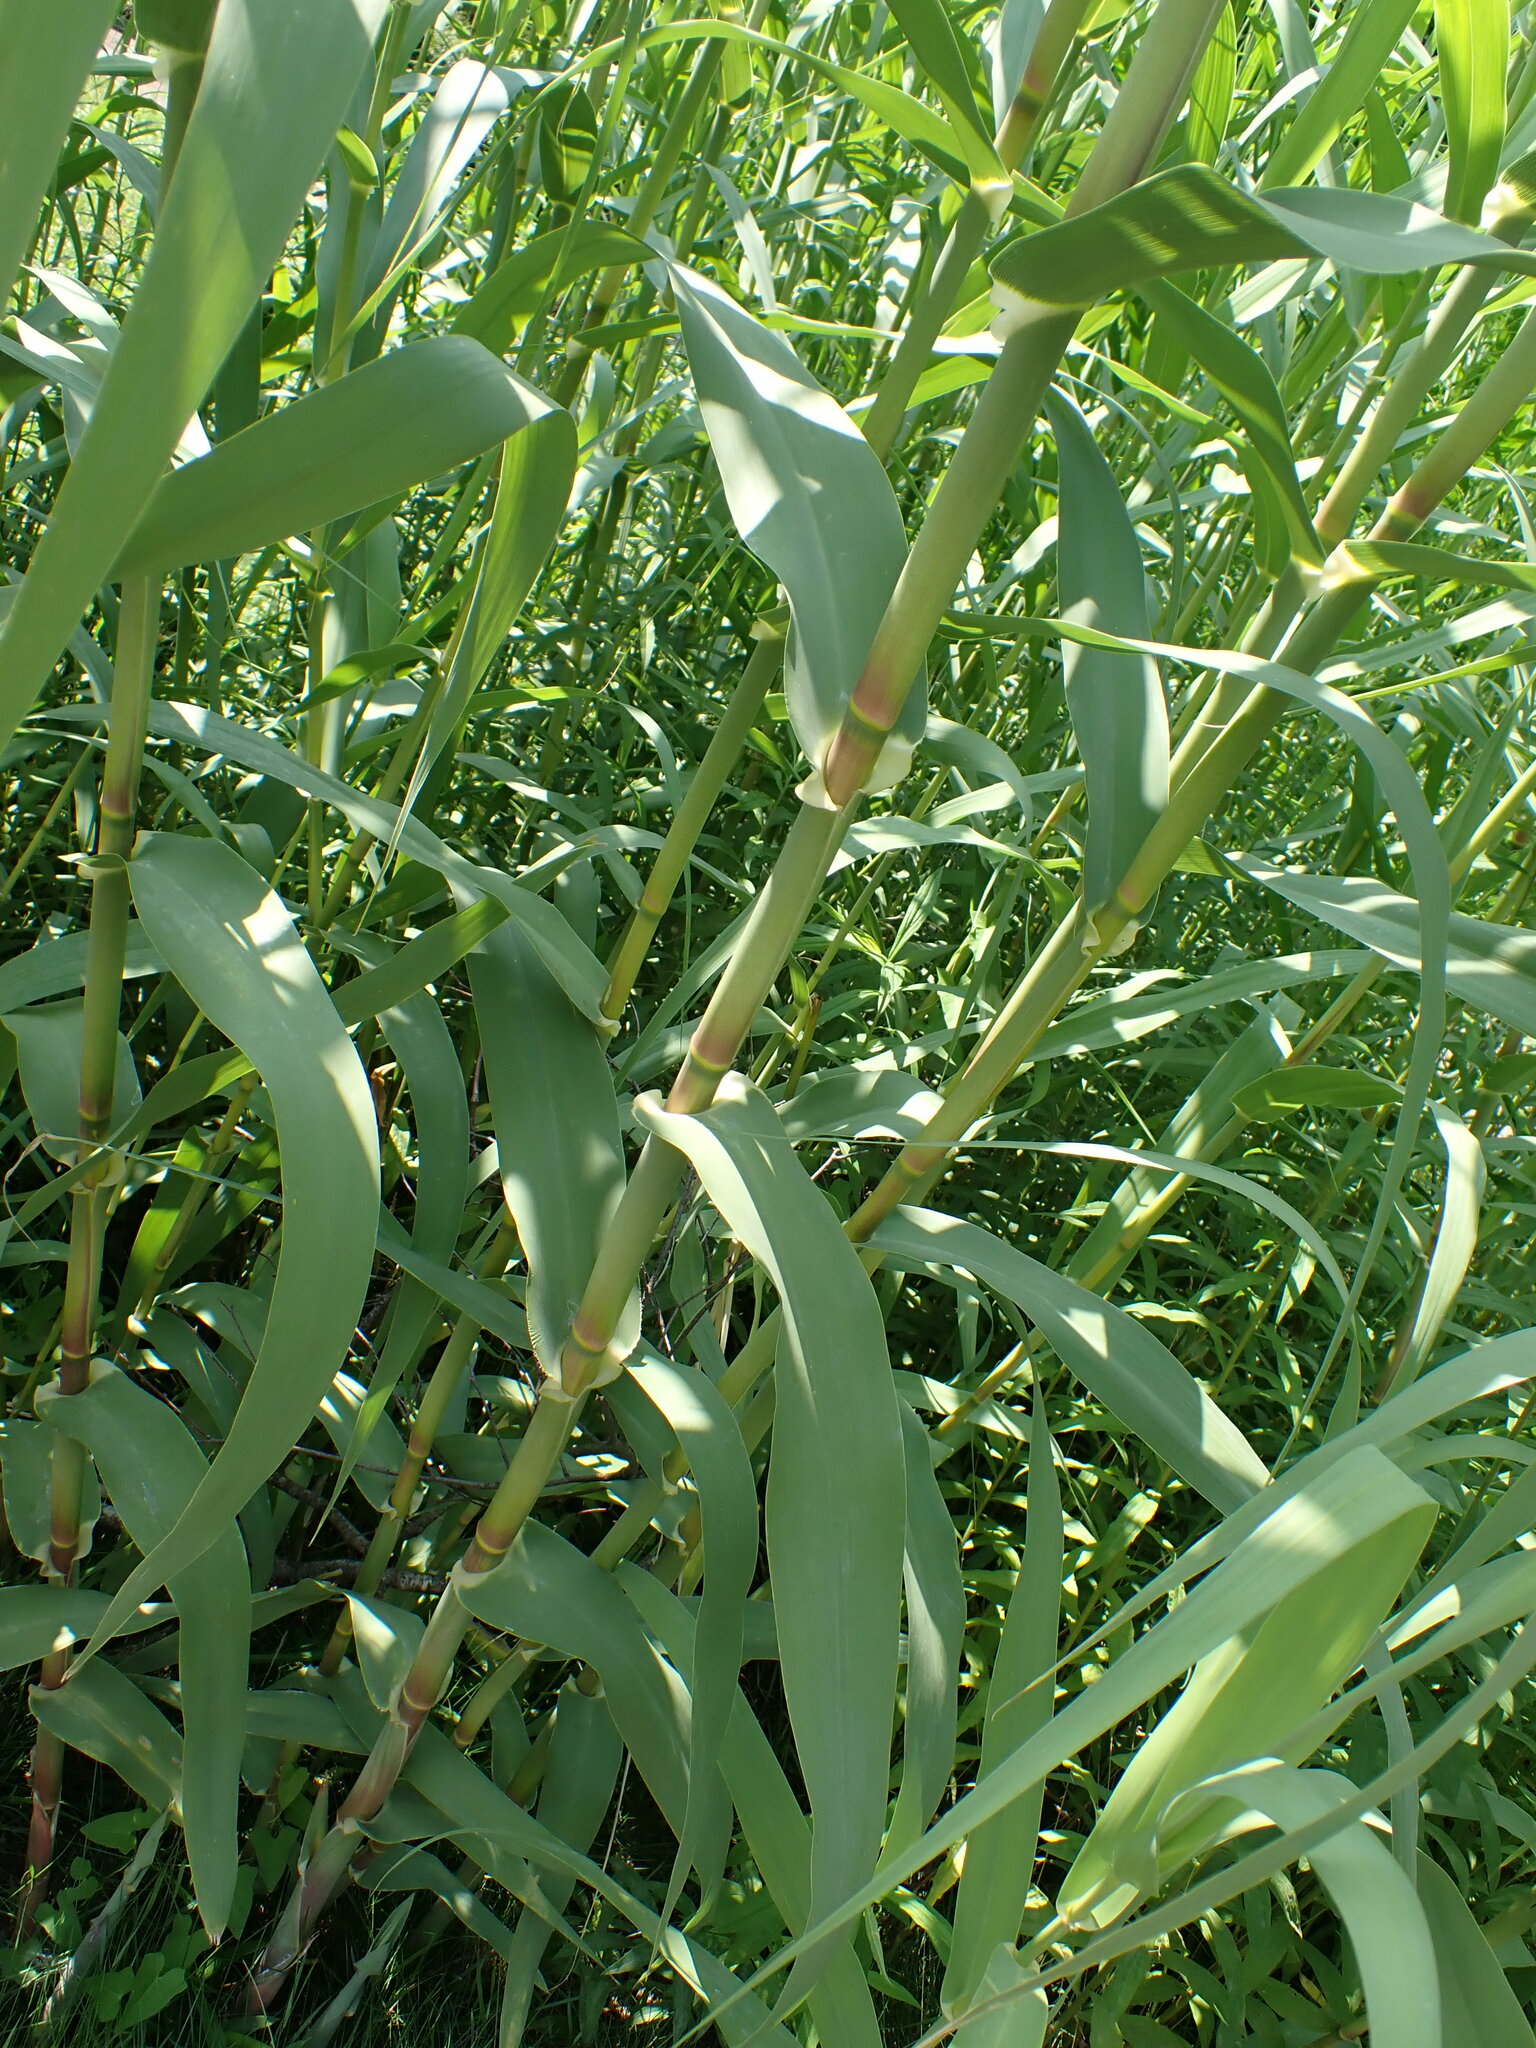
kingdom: Animalia
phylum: Arthropoda
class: Insecta
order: Hemiptera
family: Delphacidae
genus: Laodelphax
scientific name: Laodelphax striatellus
